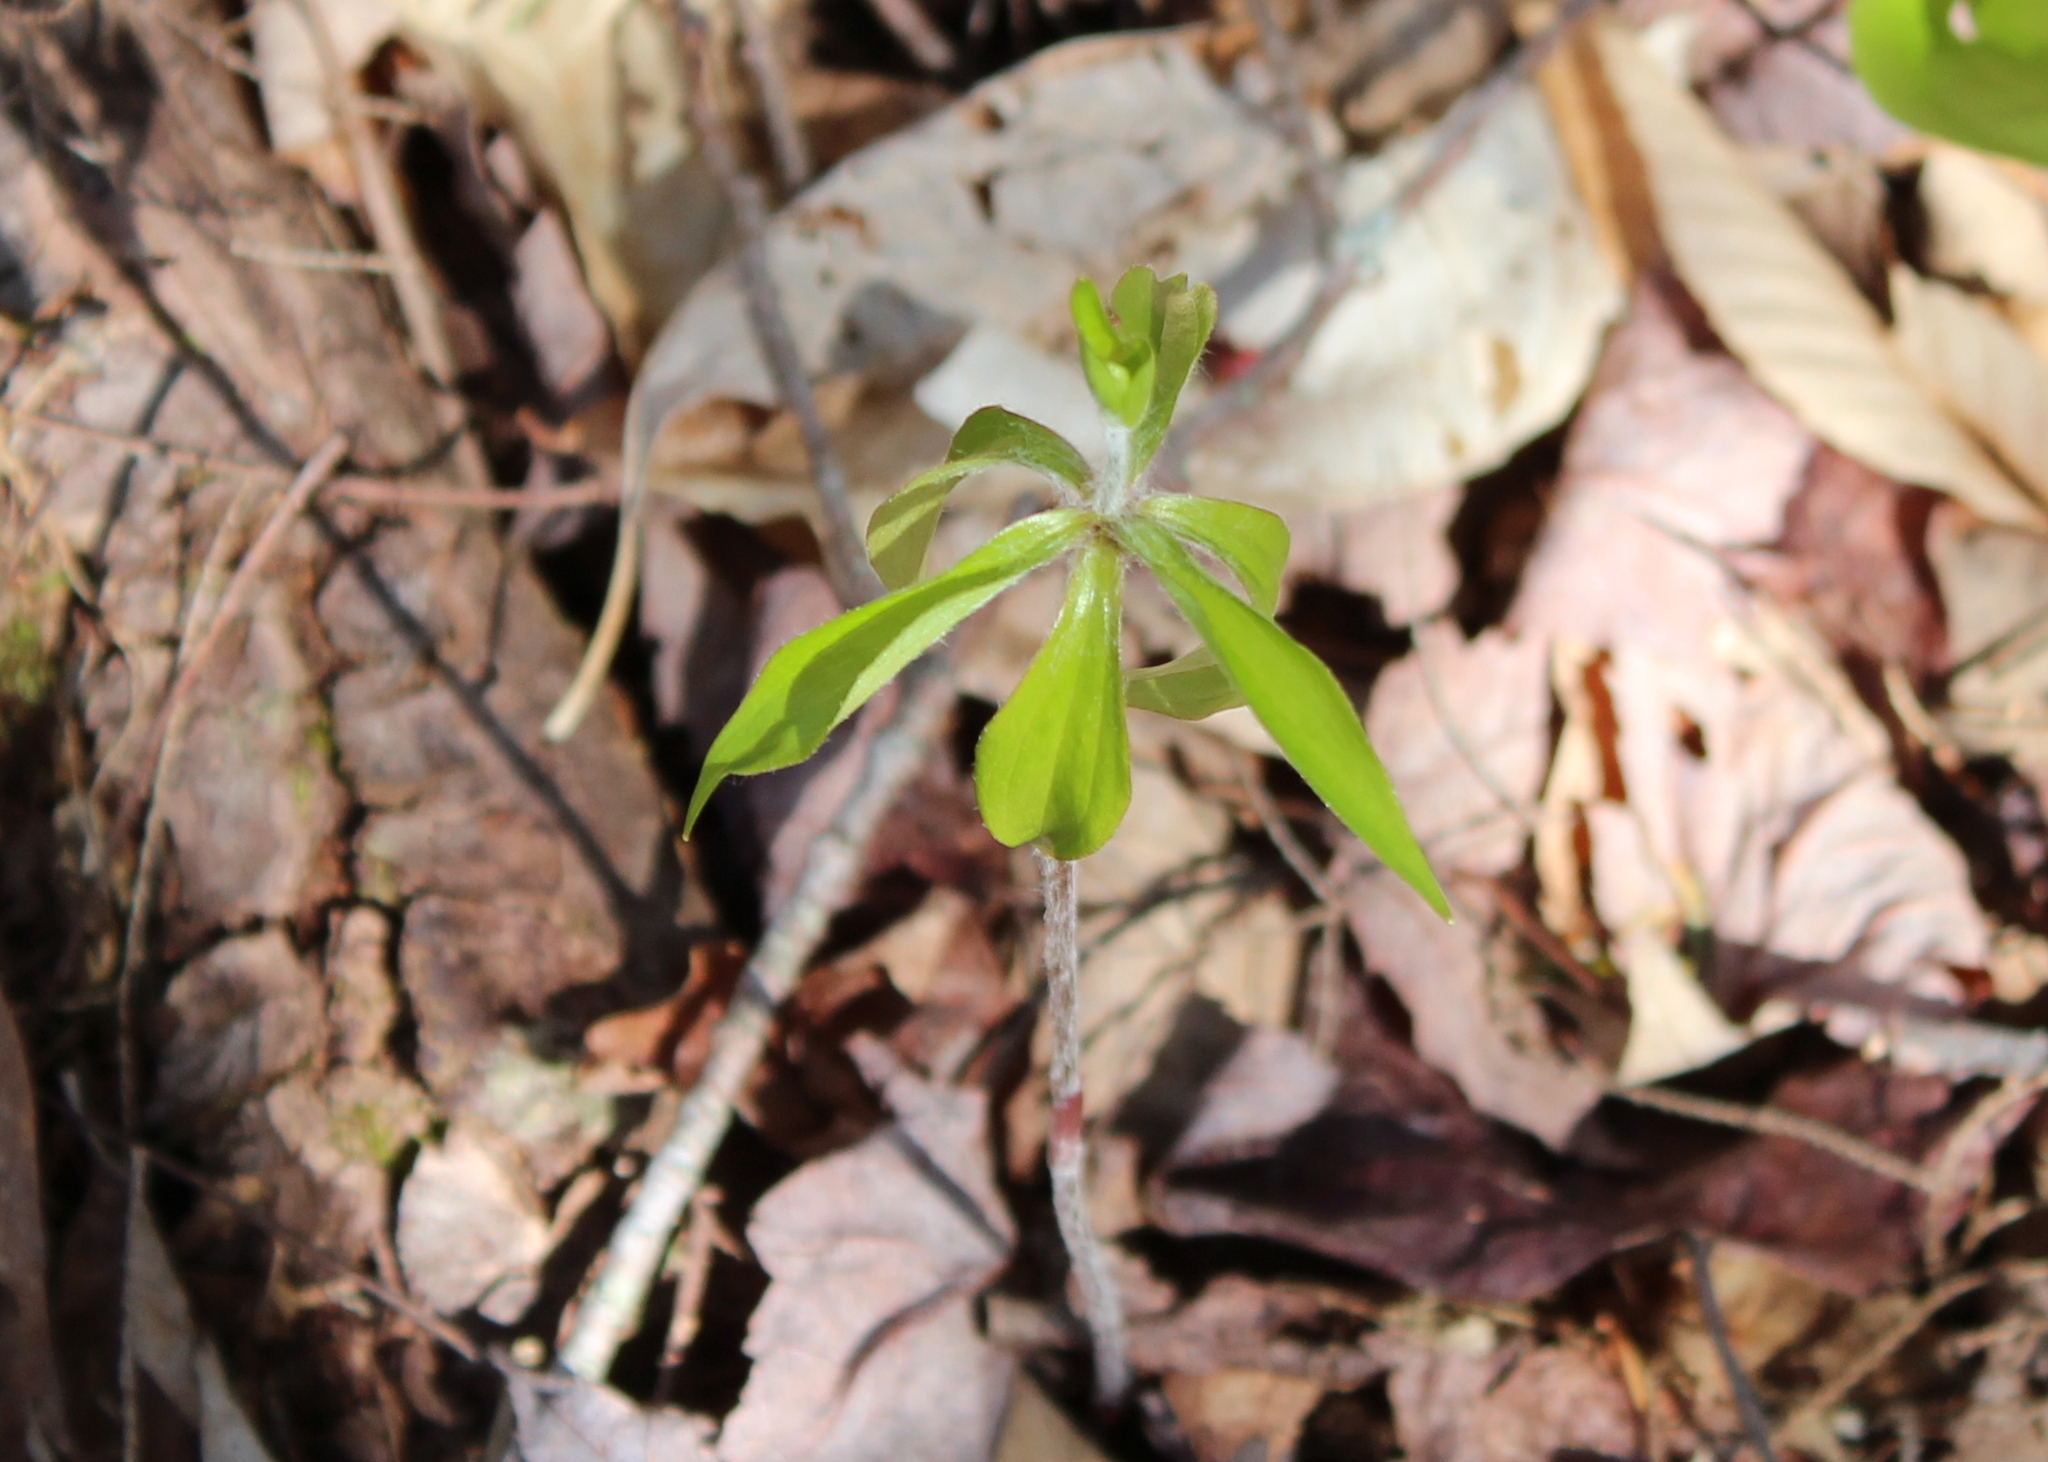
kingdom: Plantae
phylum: Tracheophyta
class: Liliopsida
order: Liliales
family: Liliaceae
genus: Medeola
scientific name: Medeola virginiana
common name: Indian cucumber-root
